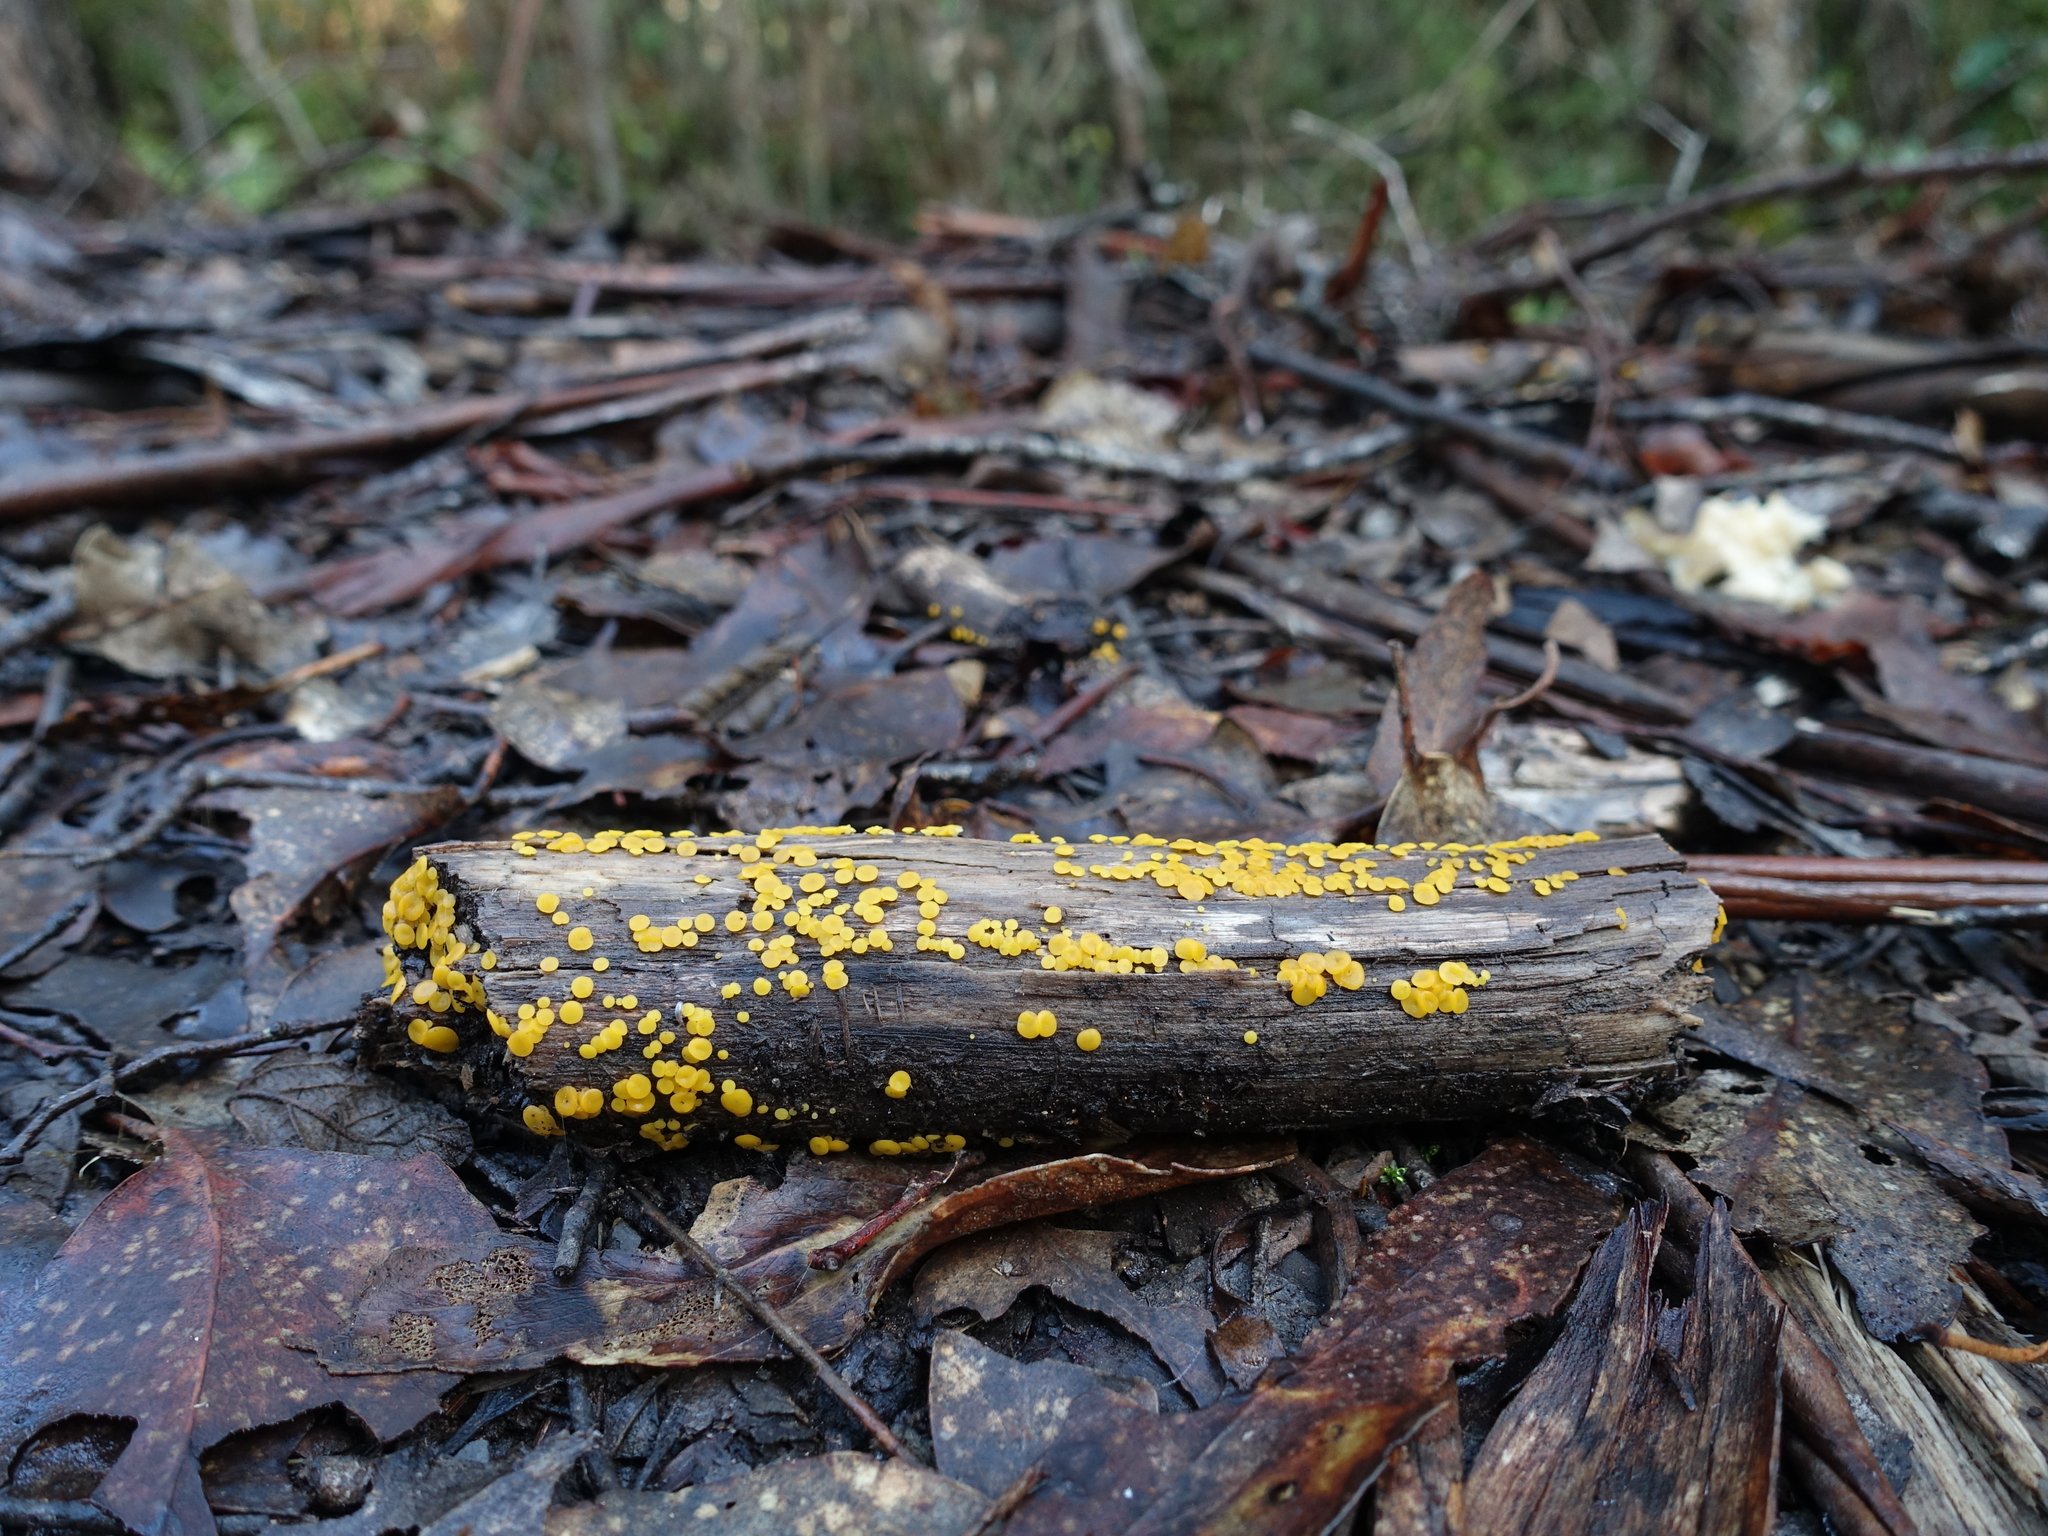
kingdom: Fungi
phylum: Ascomycota
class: Leotiomycetes
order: Helotiales
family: Pezizellaceae
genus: Calycina
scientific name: Calycina citrina
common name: Yellow fairy cups
